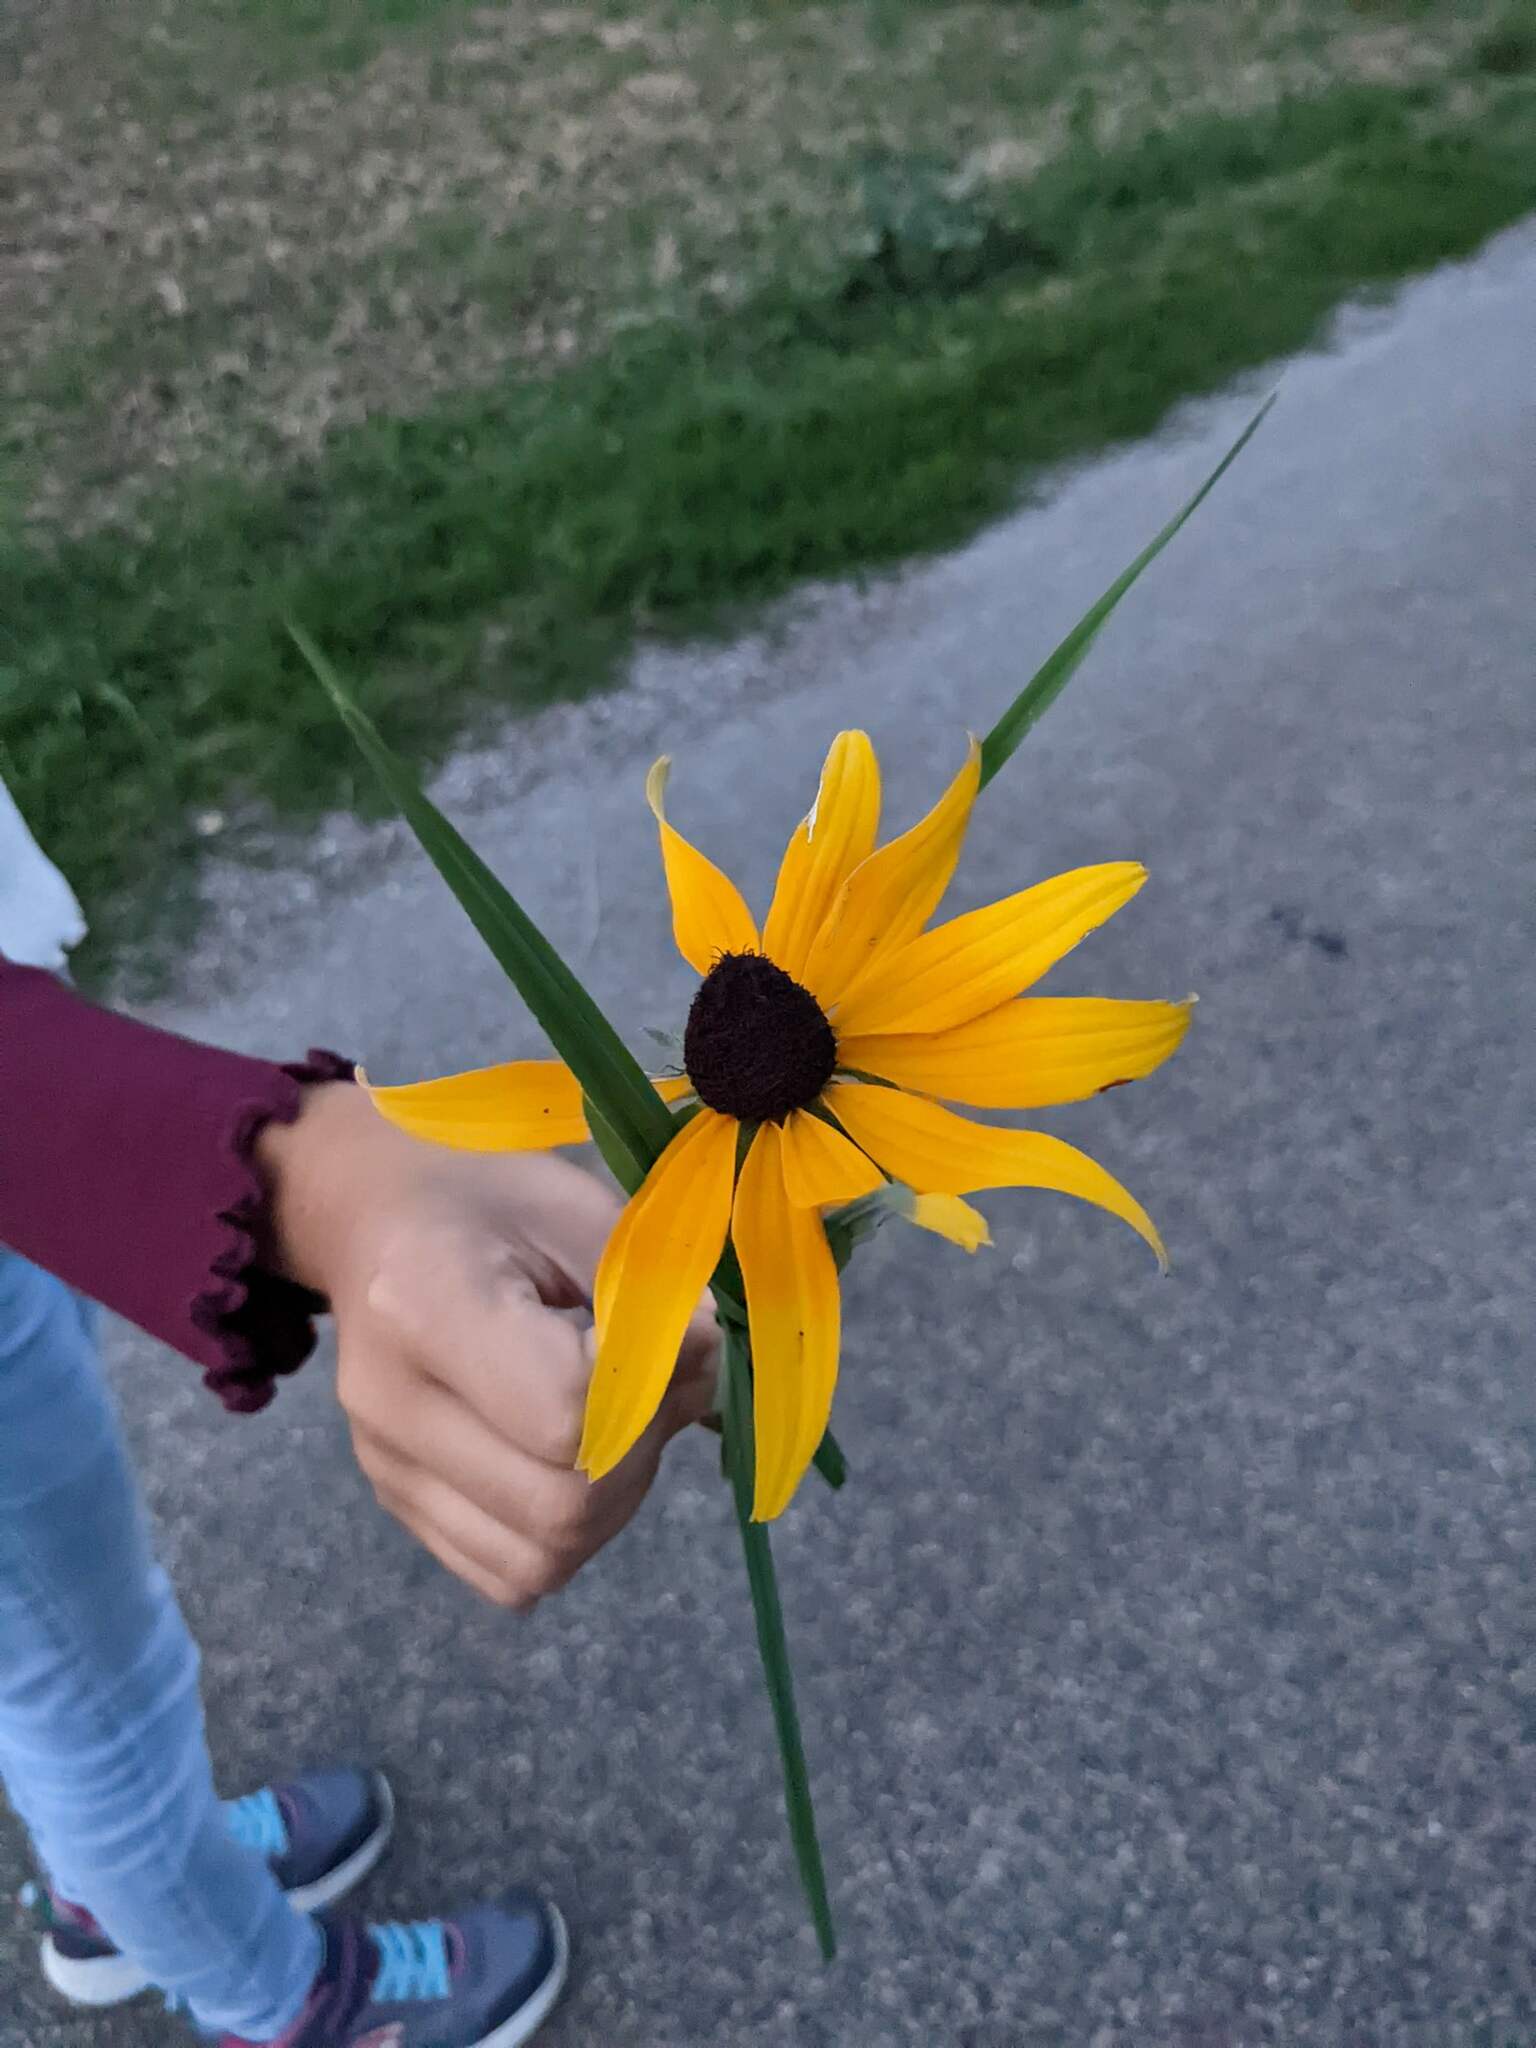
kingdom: Plantae
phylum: Tracheophyta
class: Magnoliopsida
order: Asterales
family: Asteraceae
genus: Rudbeckia
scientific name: Rudbeckia hirta
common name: Black-eyed-susan
